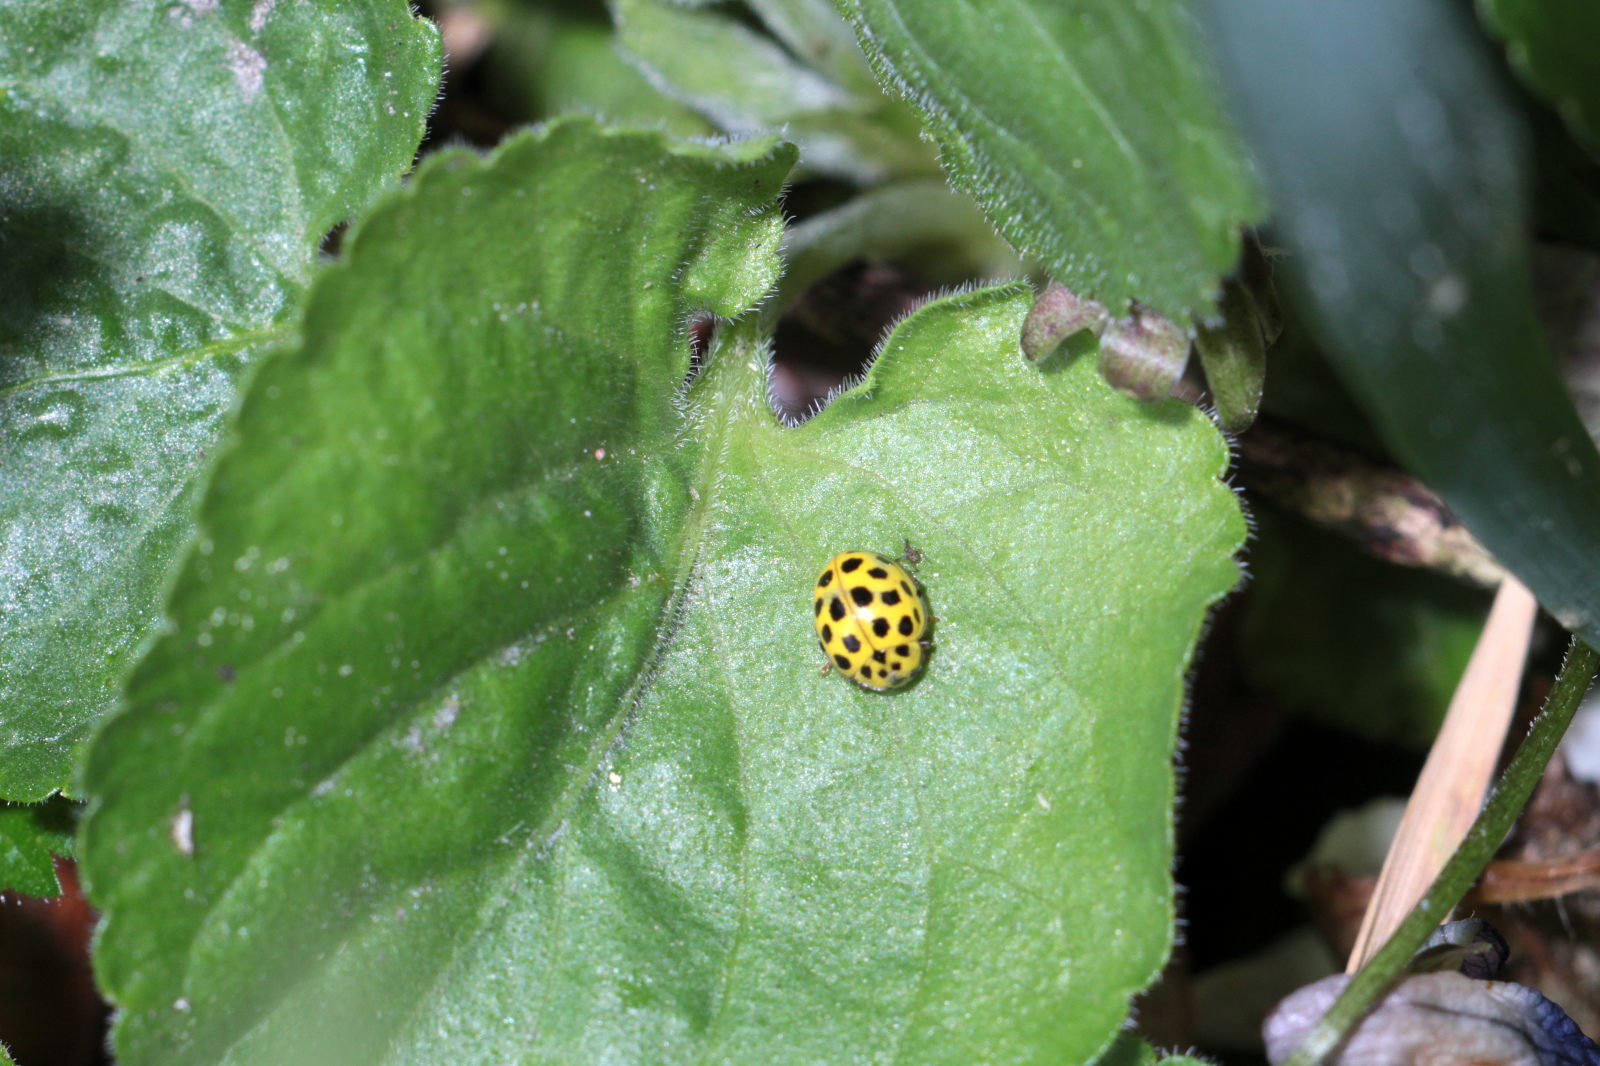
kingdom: Animalia
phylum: Arthropoda
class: Insecta
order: Coleoptera
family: Coccinellidae
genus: Psyllobora
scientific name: Psyllobora vigintiduopunctata
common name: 22-spot ladybird
